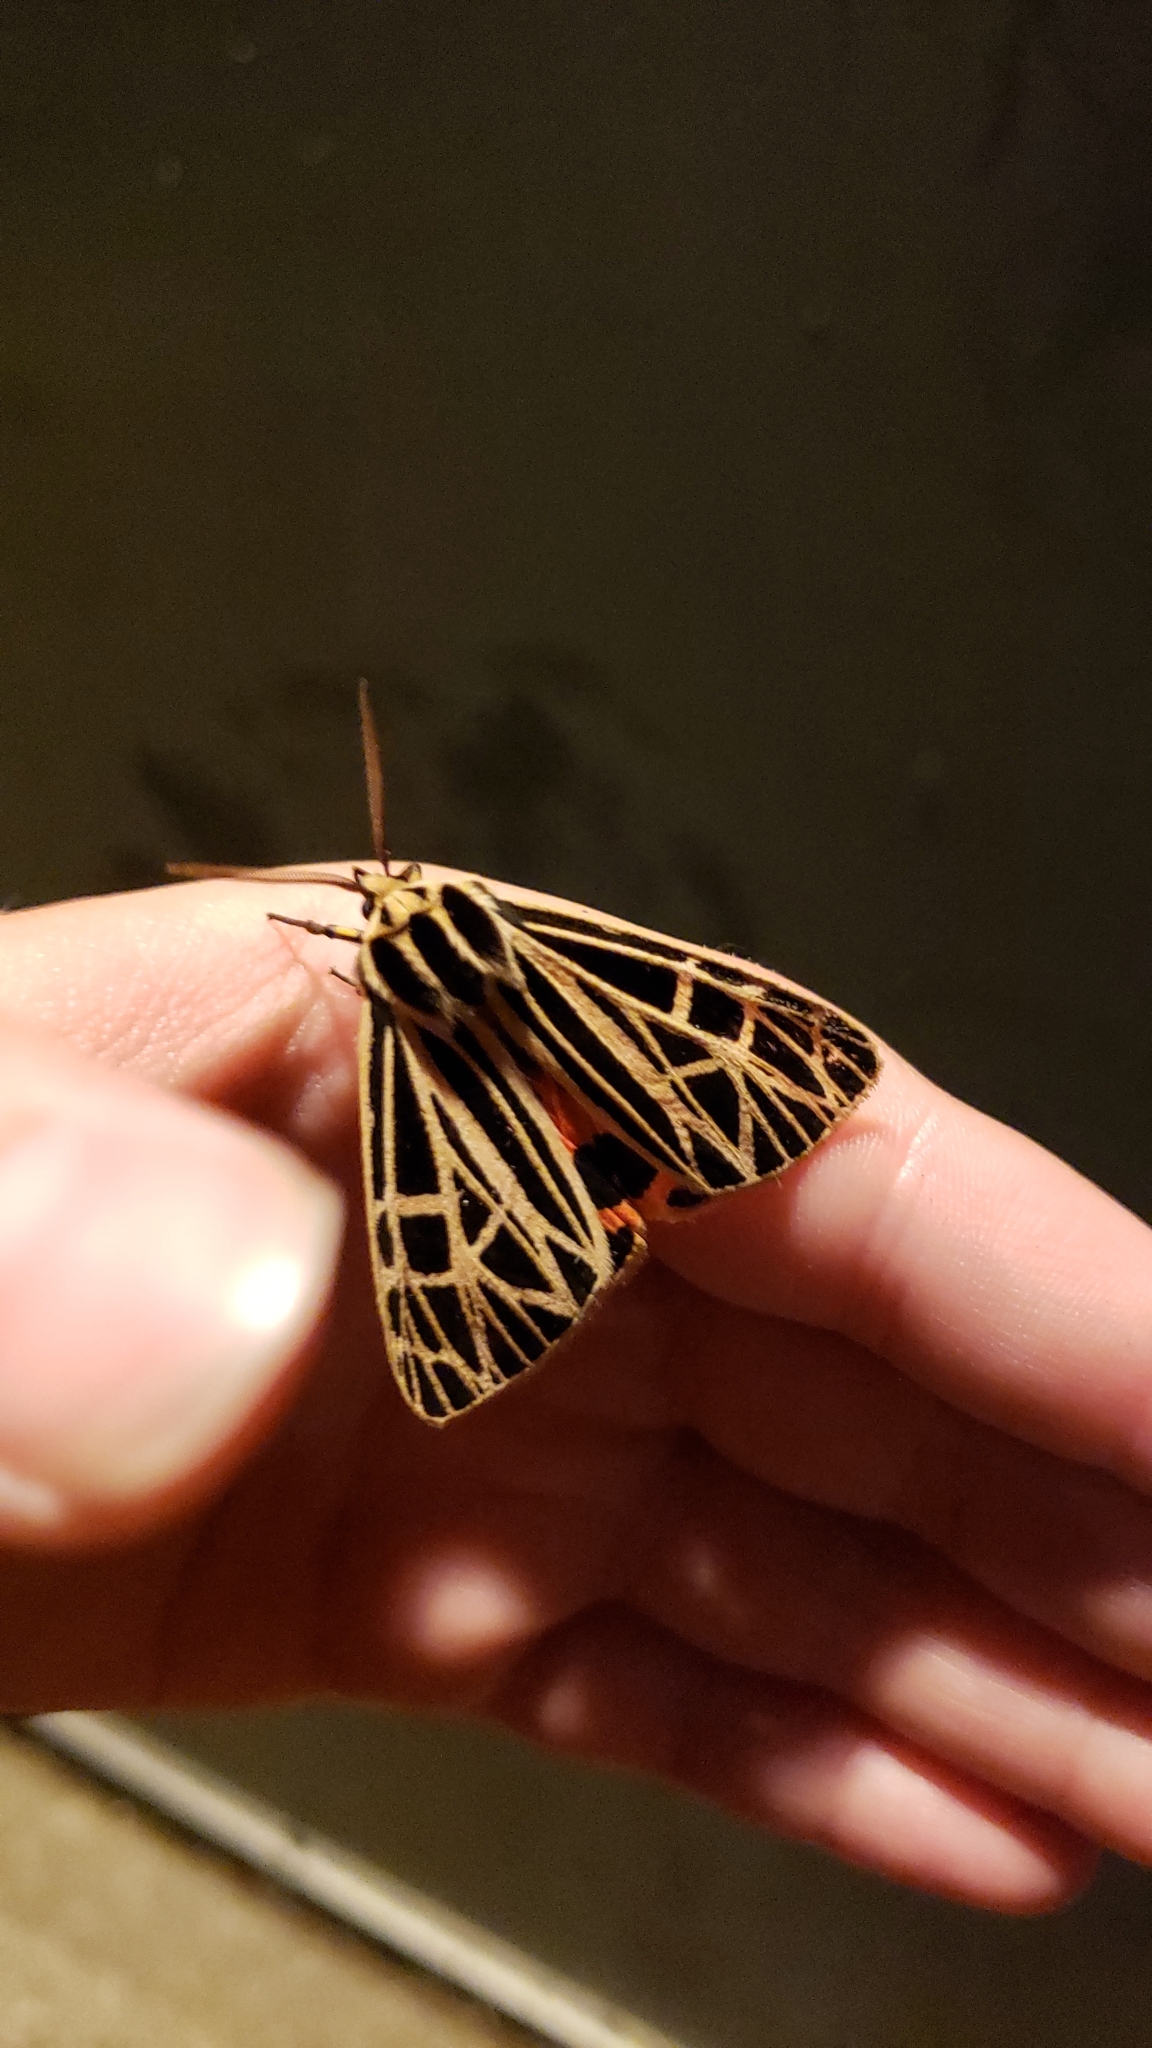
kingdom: Animalia
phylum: Arthropoda
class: Insecta
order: Lepidoptera
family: Erebidae
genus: Grammia
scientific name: Grammia virgo
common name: Virgin tiger moth
